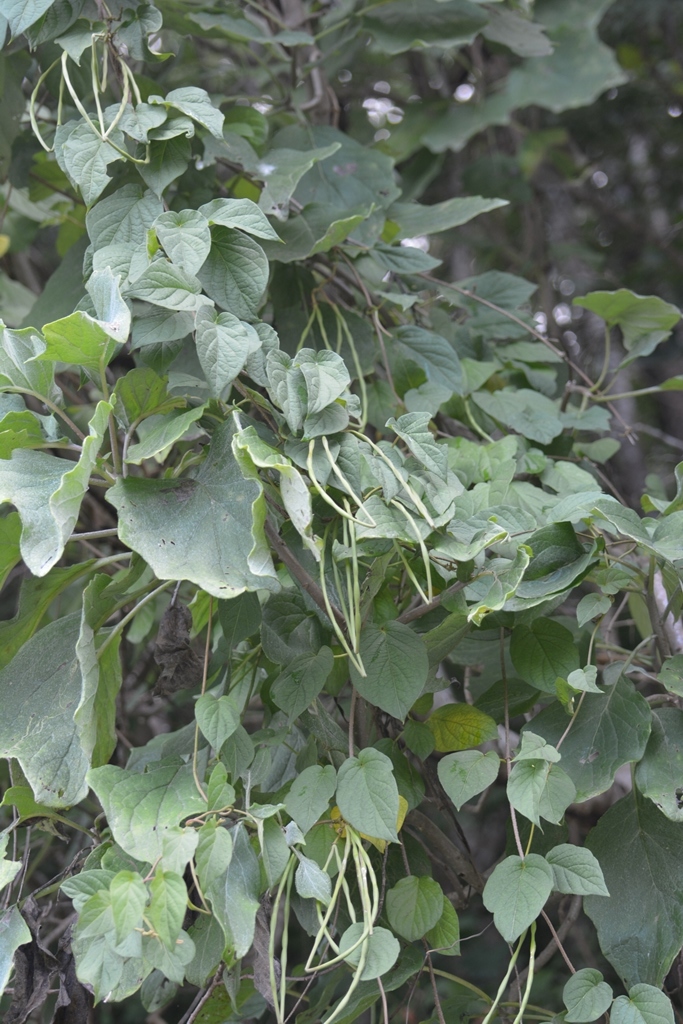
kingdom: Plantae
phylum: Tracheophyta
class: Magnoliopsida
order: Gentianales
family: Apocynaceae
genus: Laubertia
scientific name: Laubertia contorta
